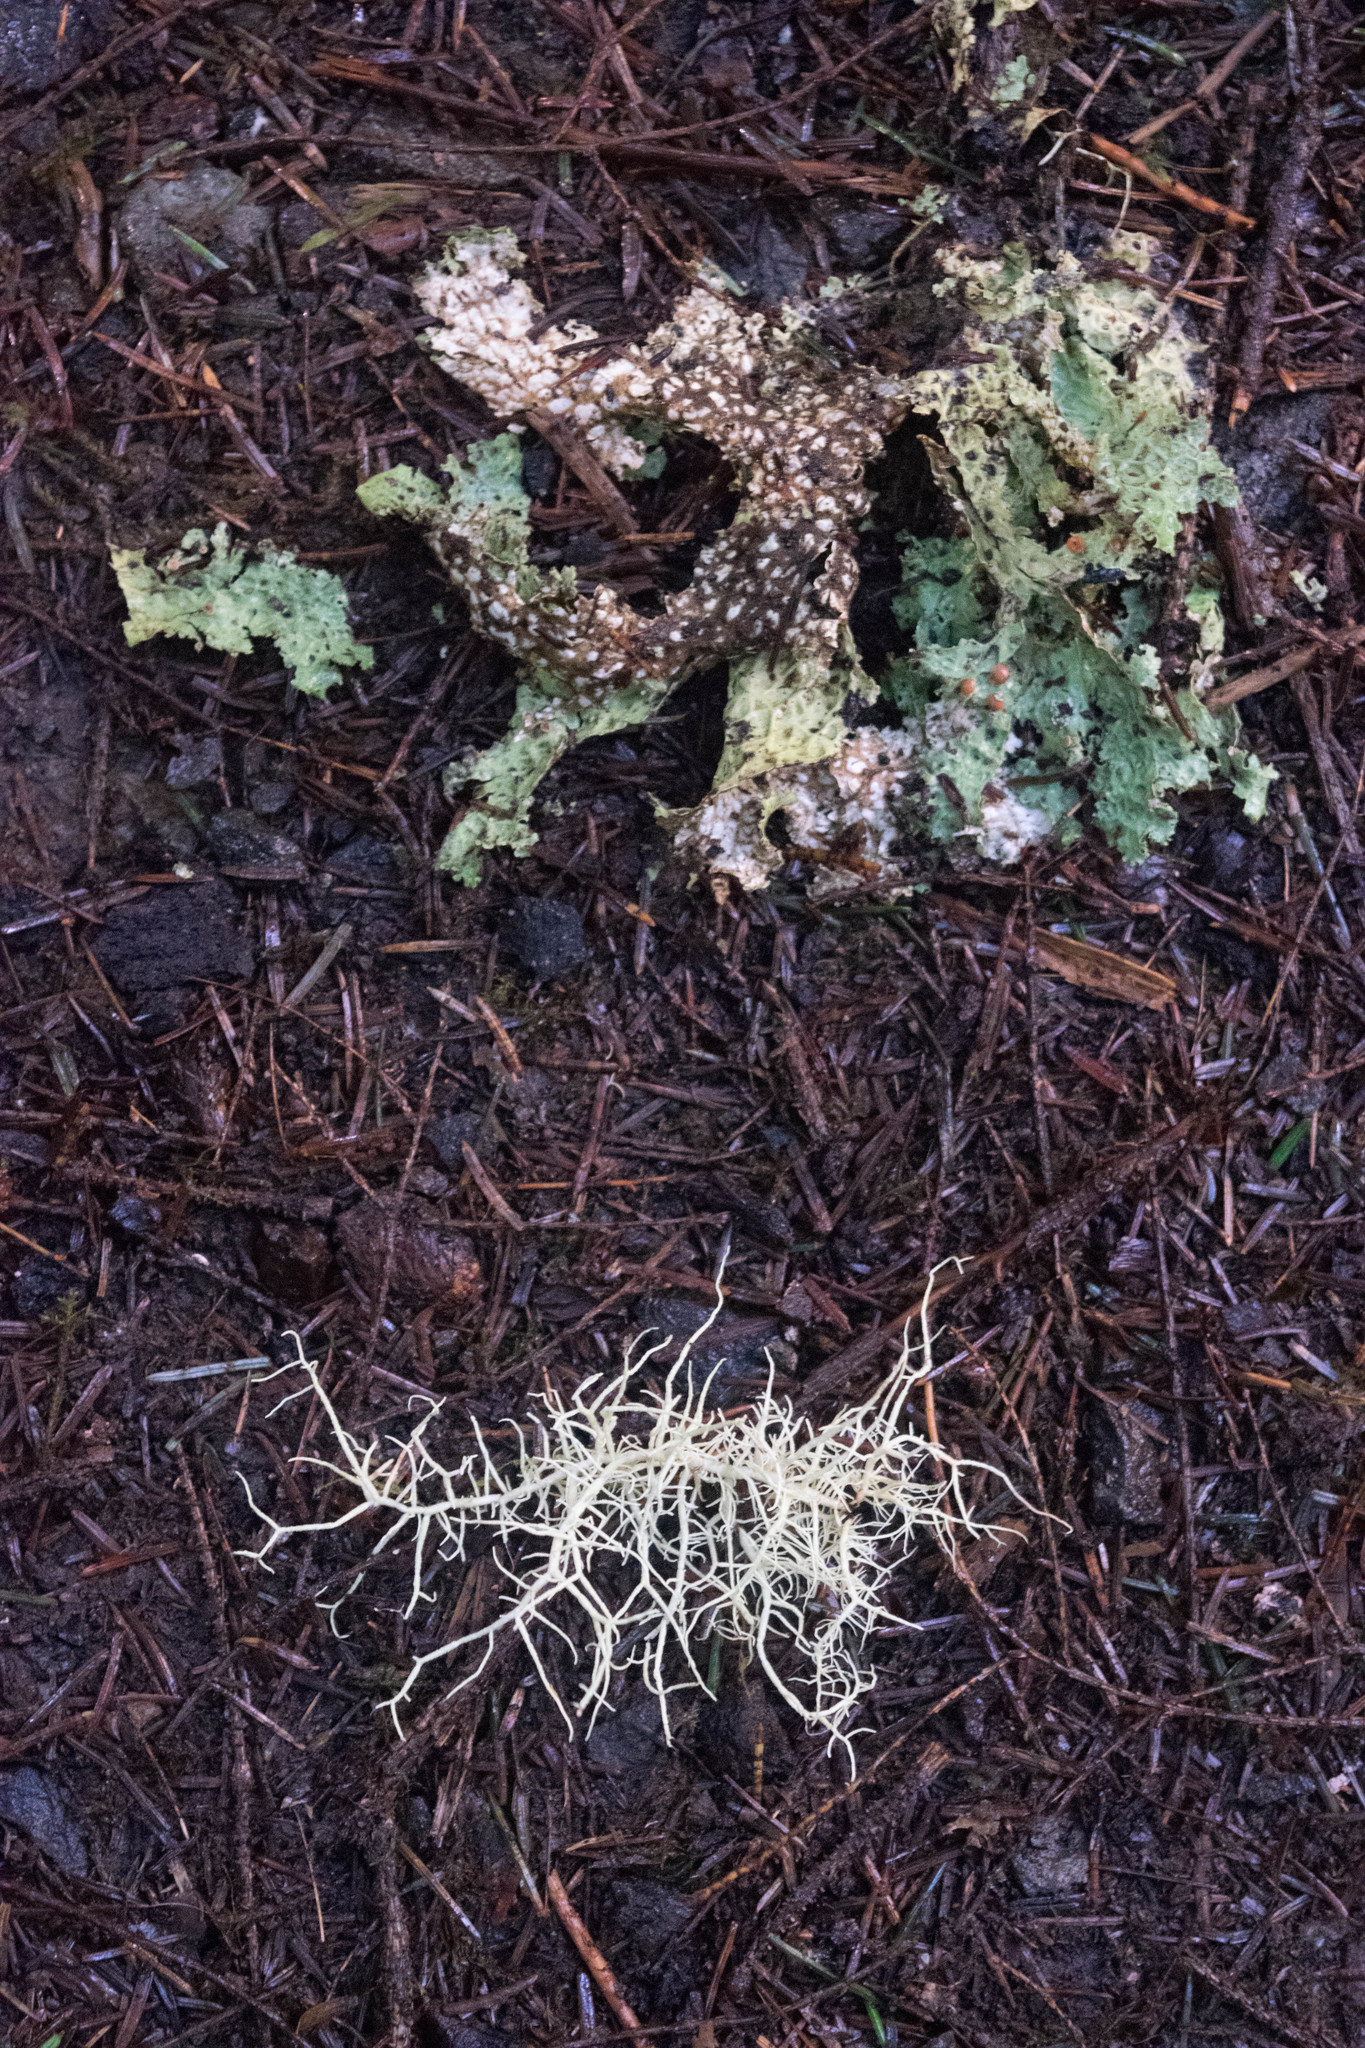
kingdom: Fungi
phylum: Ascomycota
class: Lecanoromycetes
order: Peltigerales
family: Lobariaceae
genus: Lobaria
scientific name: Lobaria oregana
